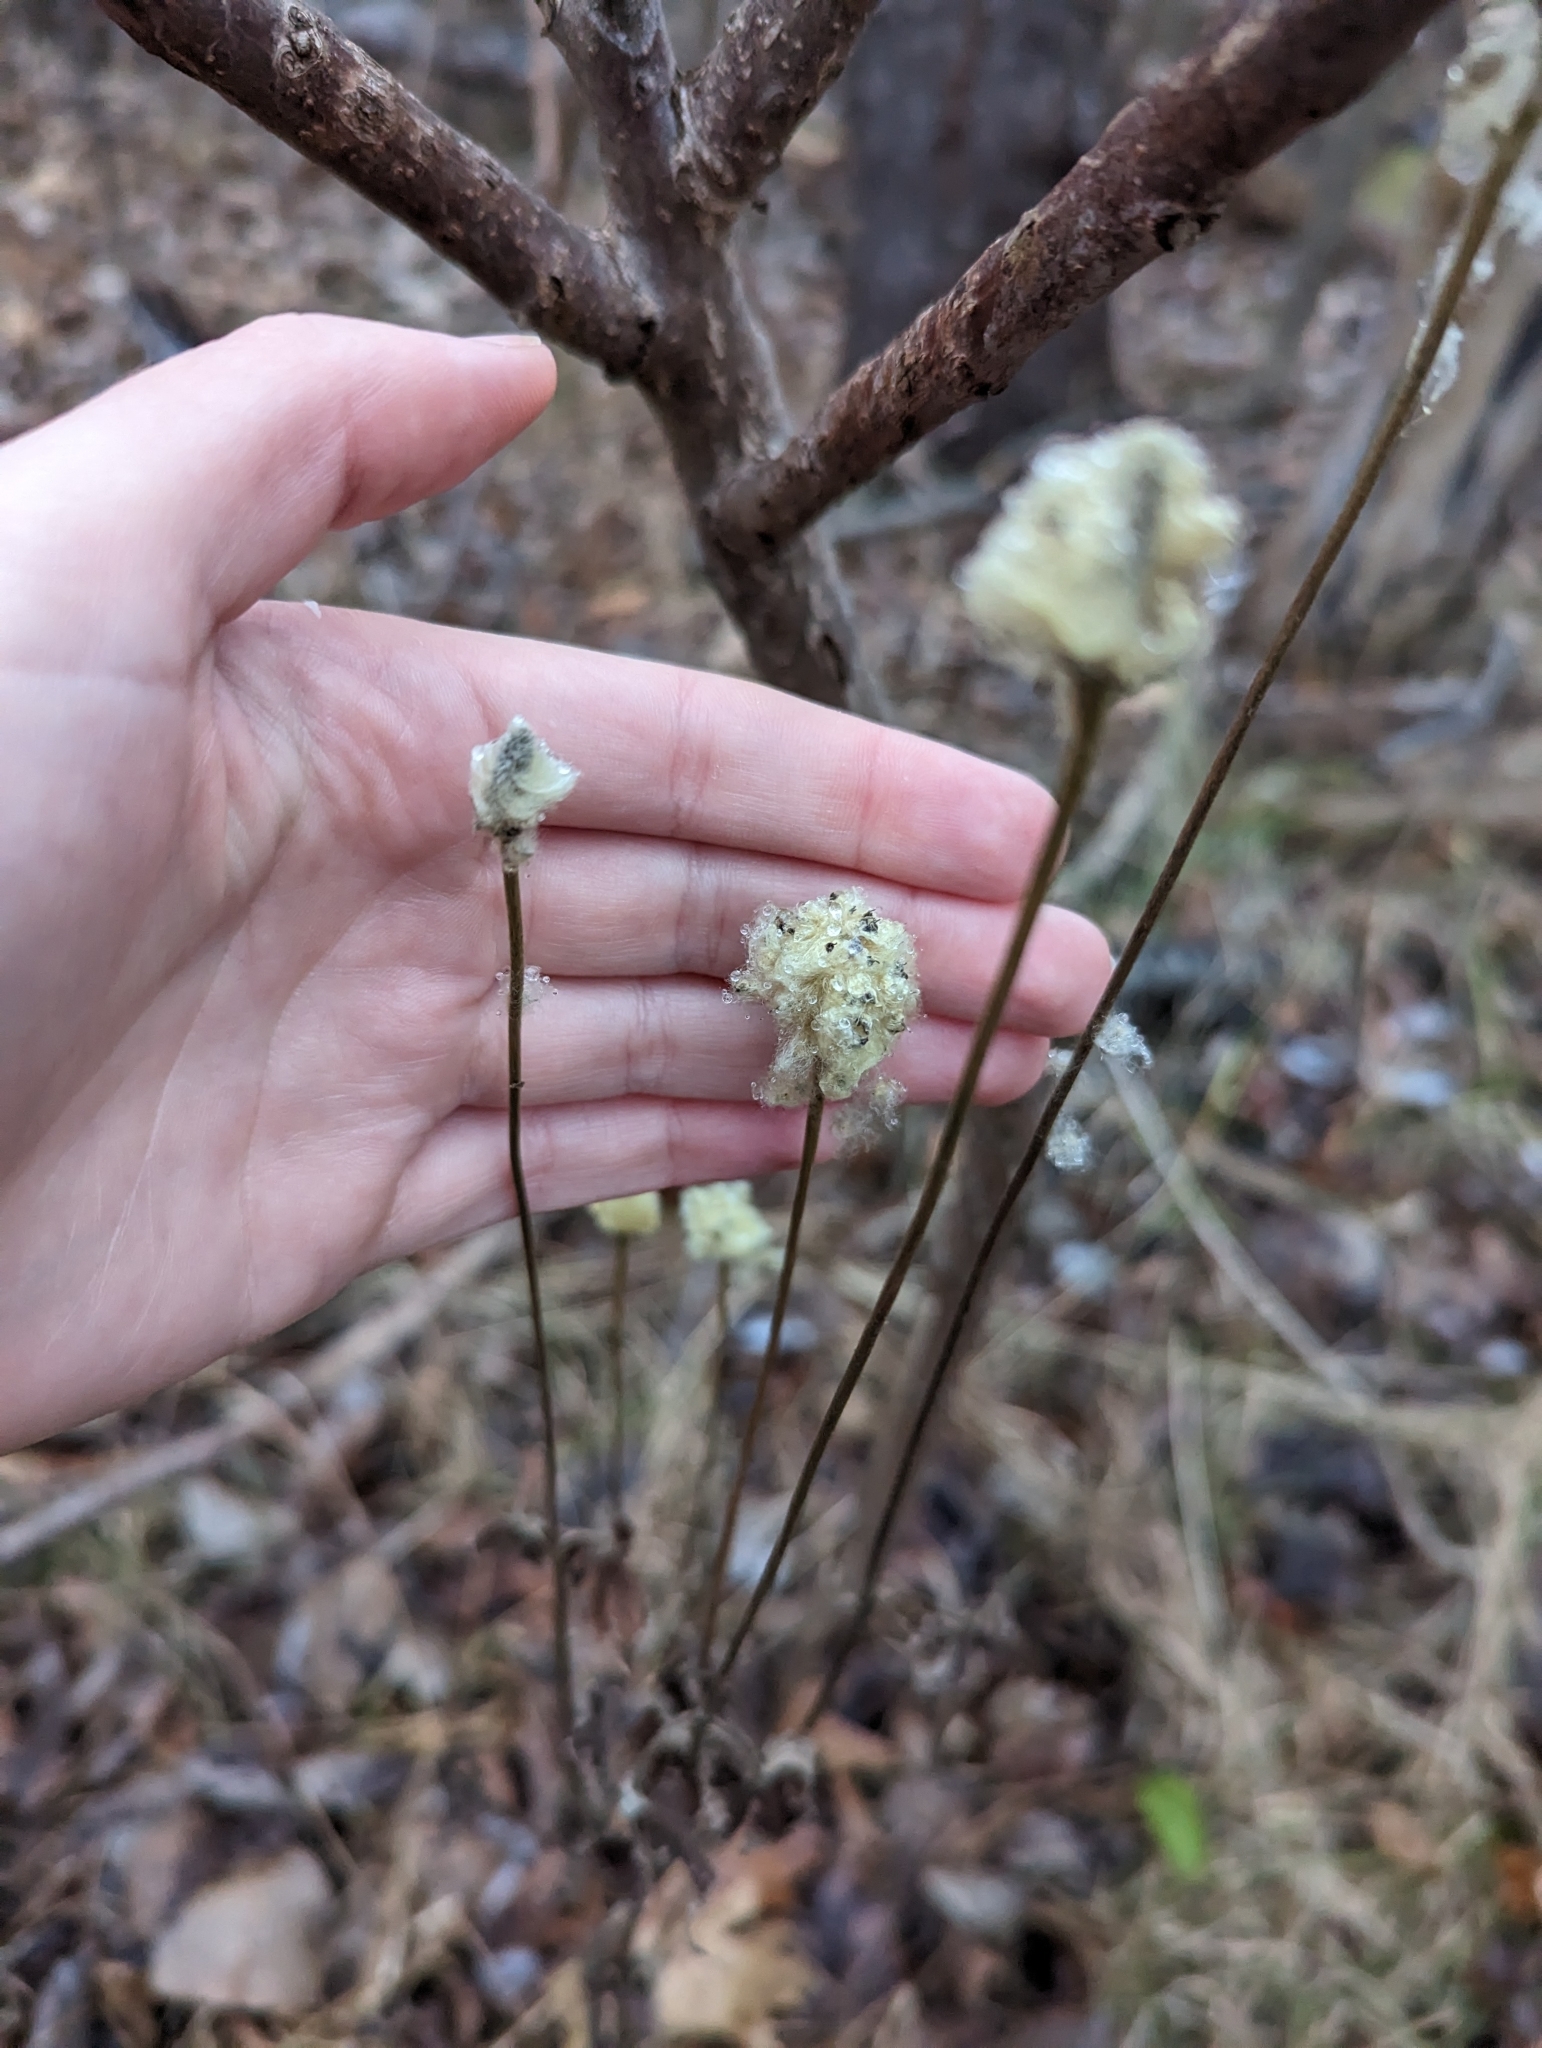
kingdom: Plantae
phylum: Tracheophyta
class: Magnoliopsida
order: Ranunculales
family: Ranunculaceae
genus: Anemone
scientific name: Anemone virginiana
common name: Tall anemone
